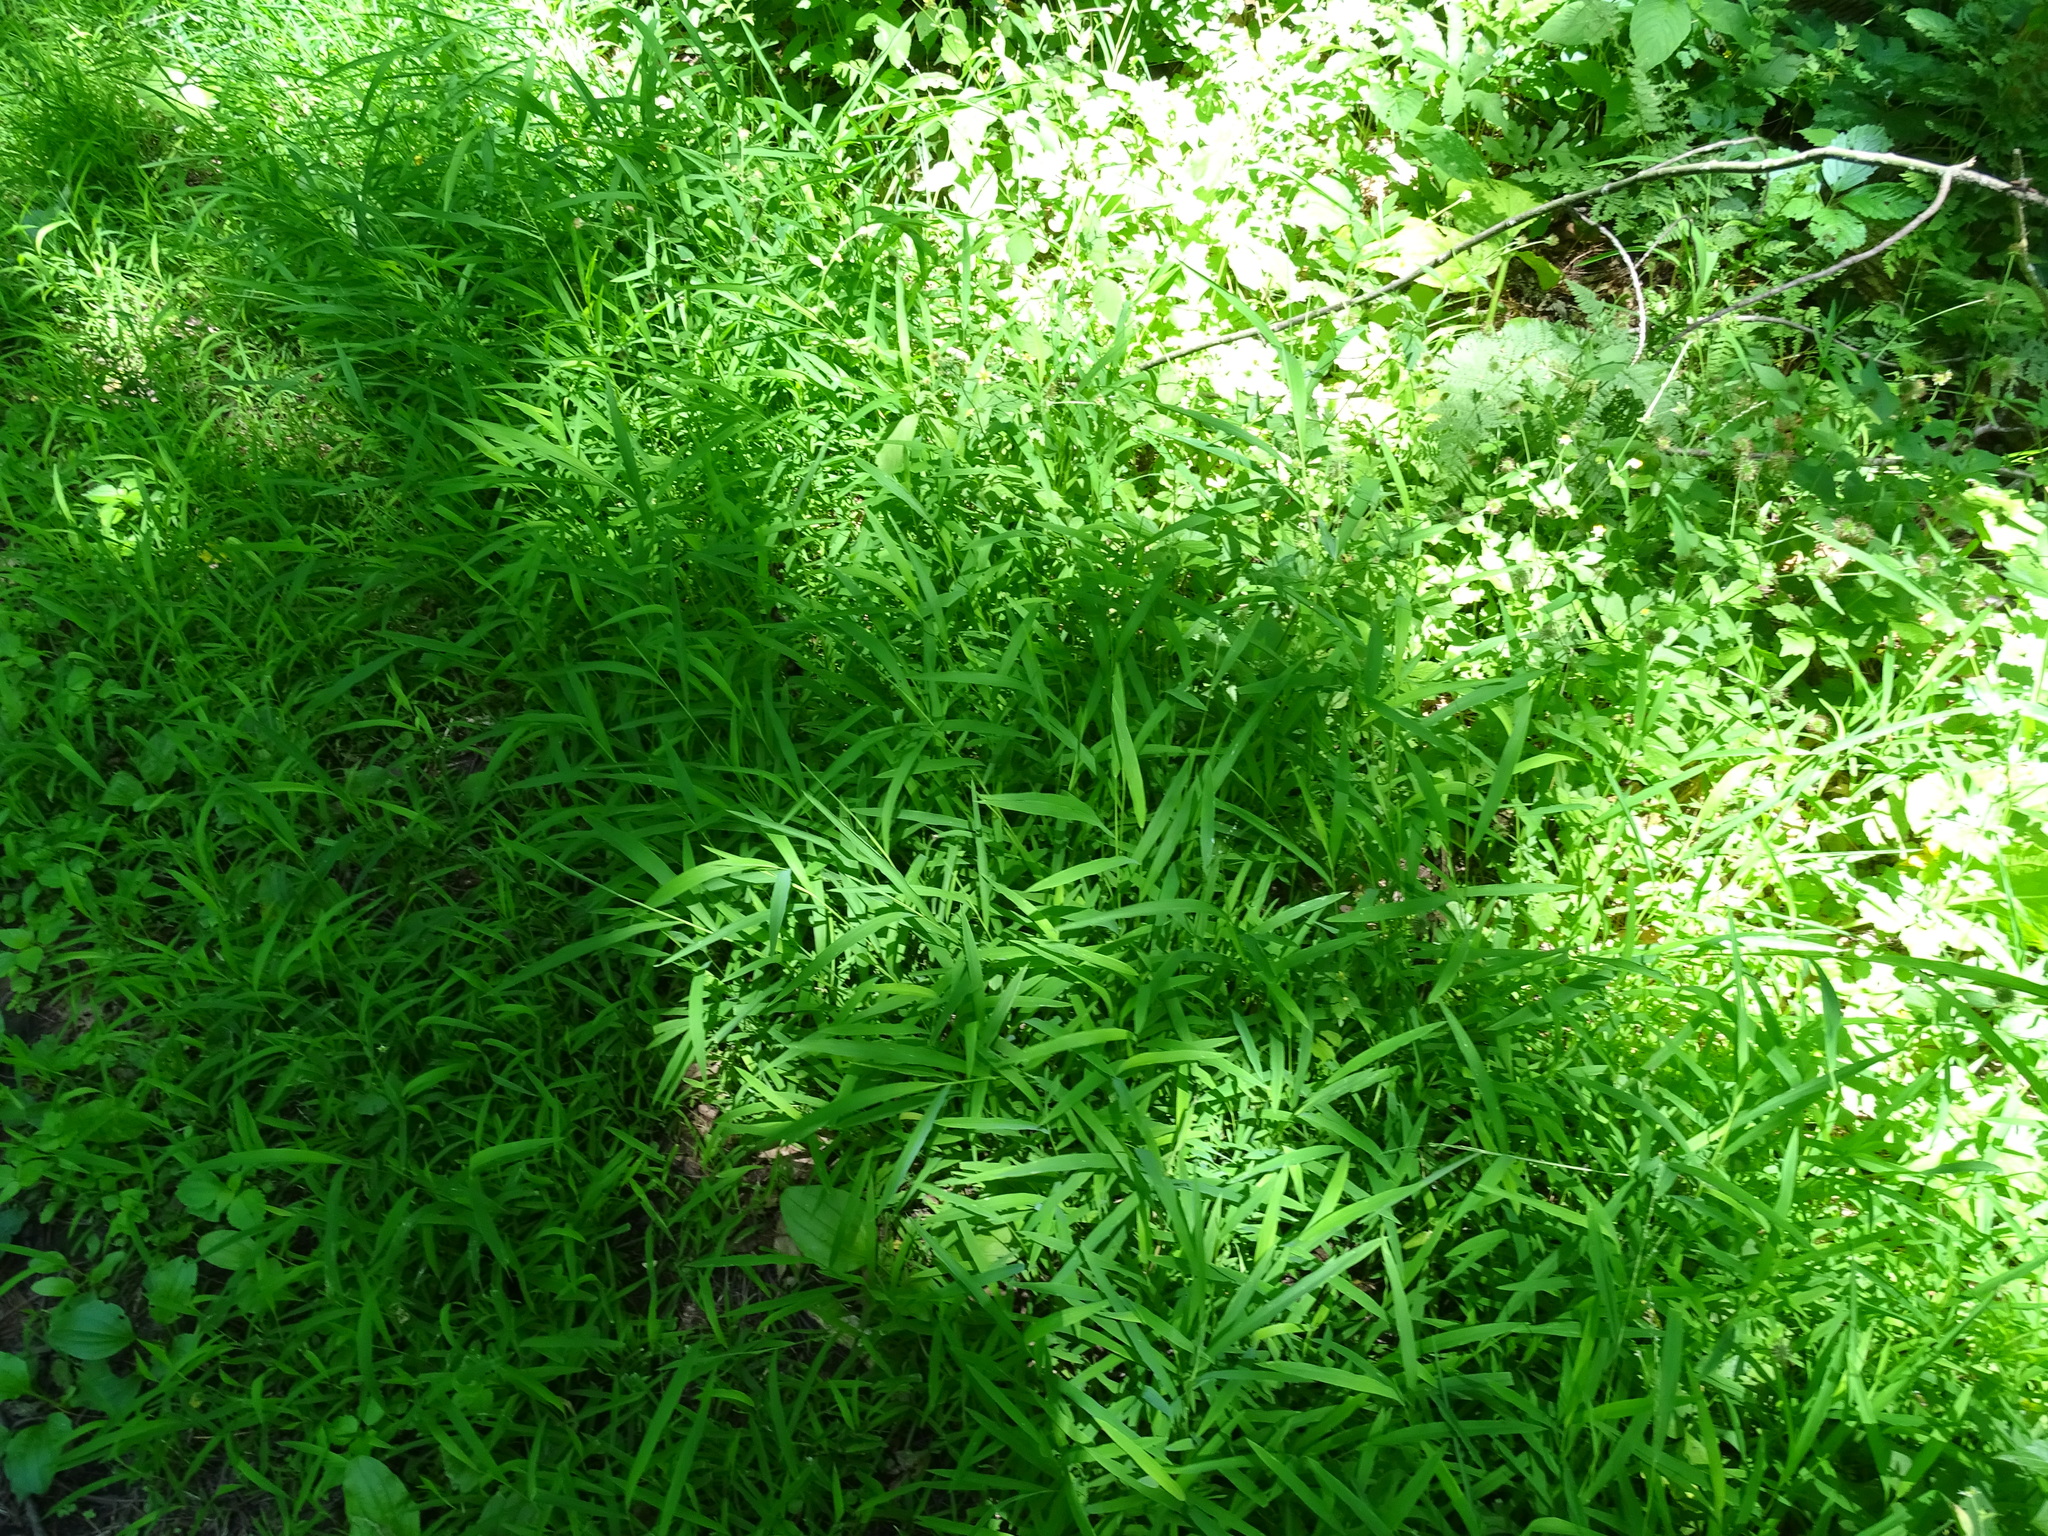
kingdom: Plantae
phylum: Tracheophyta
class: Liliopsida
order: Poales
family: Poaceae
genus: Leersia
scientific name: Leersia virginica
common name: White cutgrass
